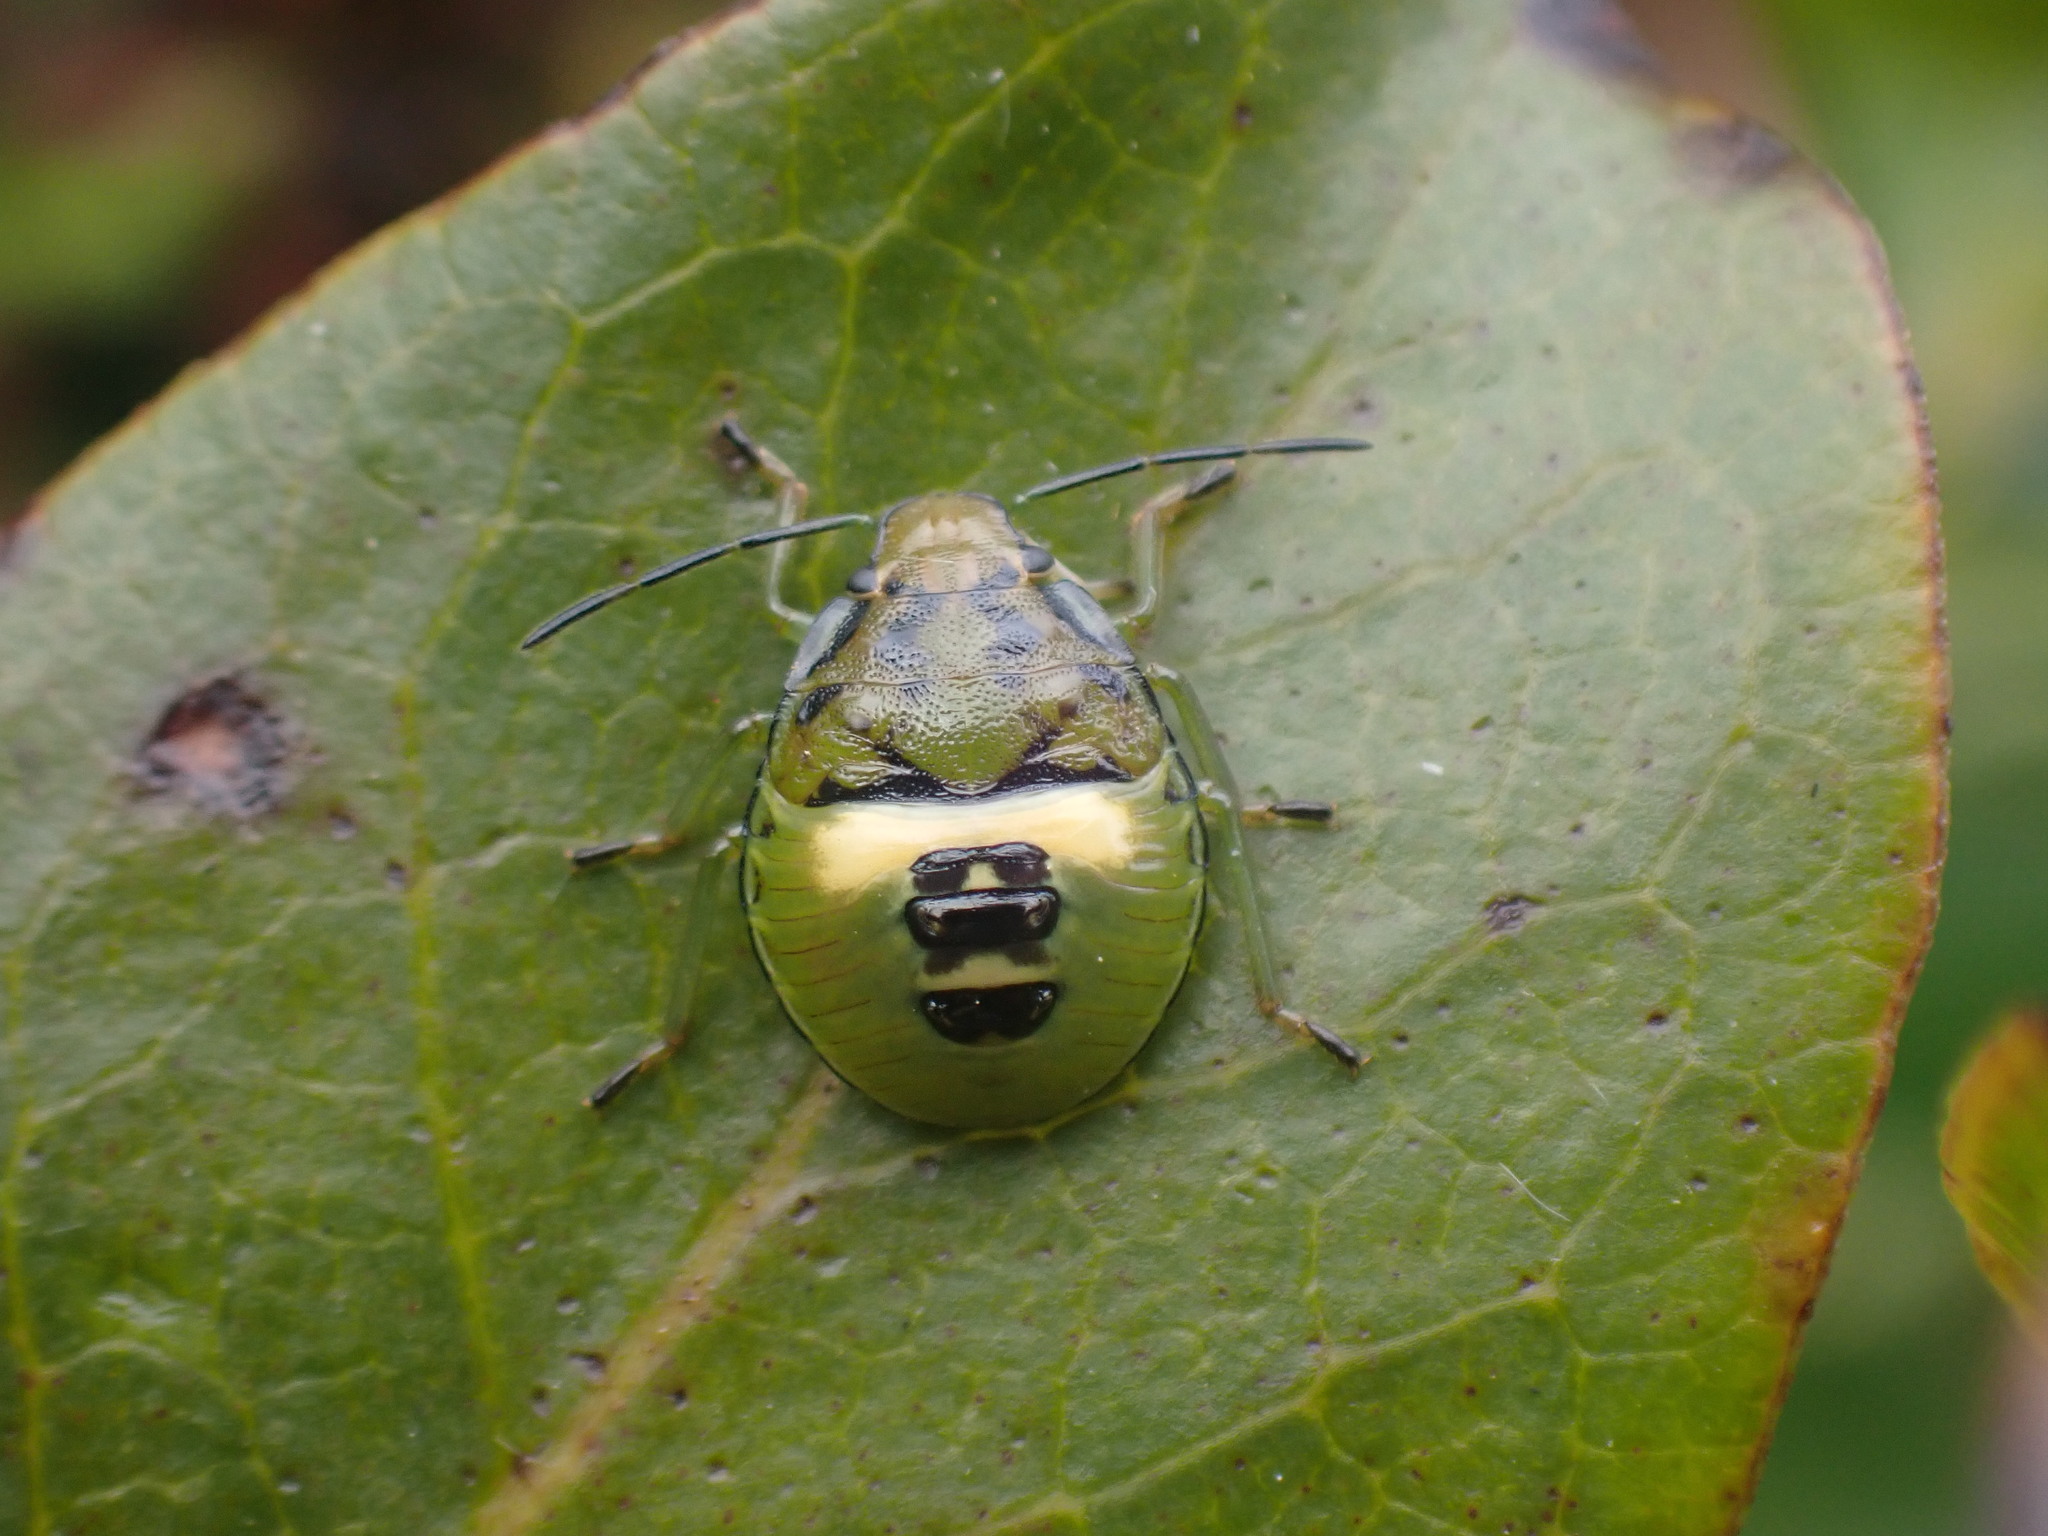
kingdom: Animalia
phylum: Arthropoda
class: Insecta
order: Hemiptera
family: Pentatomidae
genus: Glaucias
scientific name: Glaucias amyota
